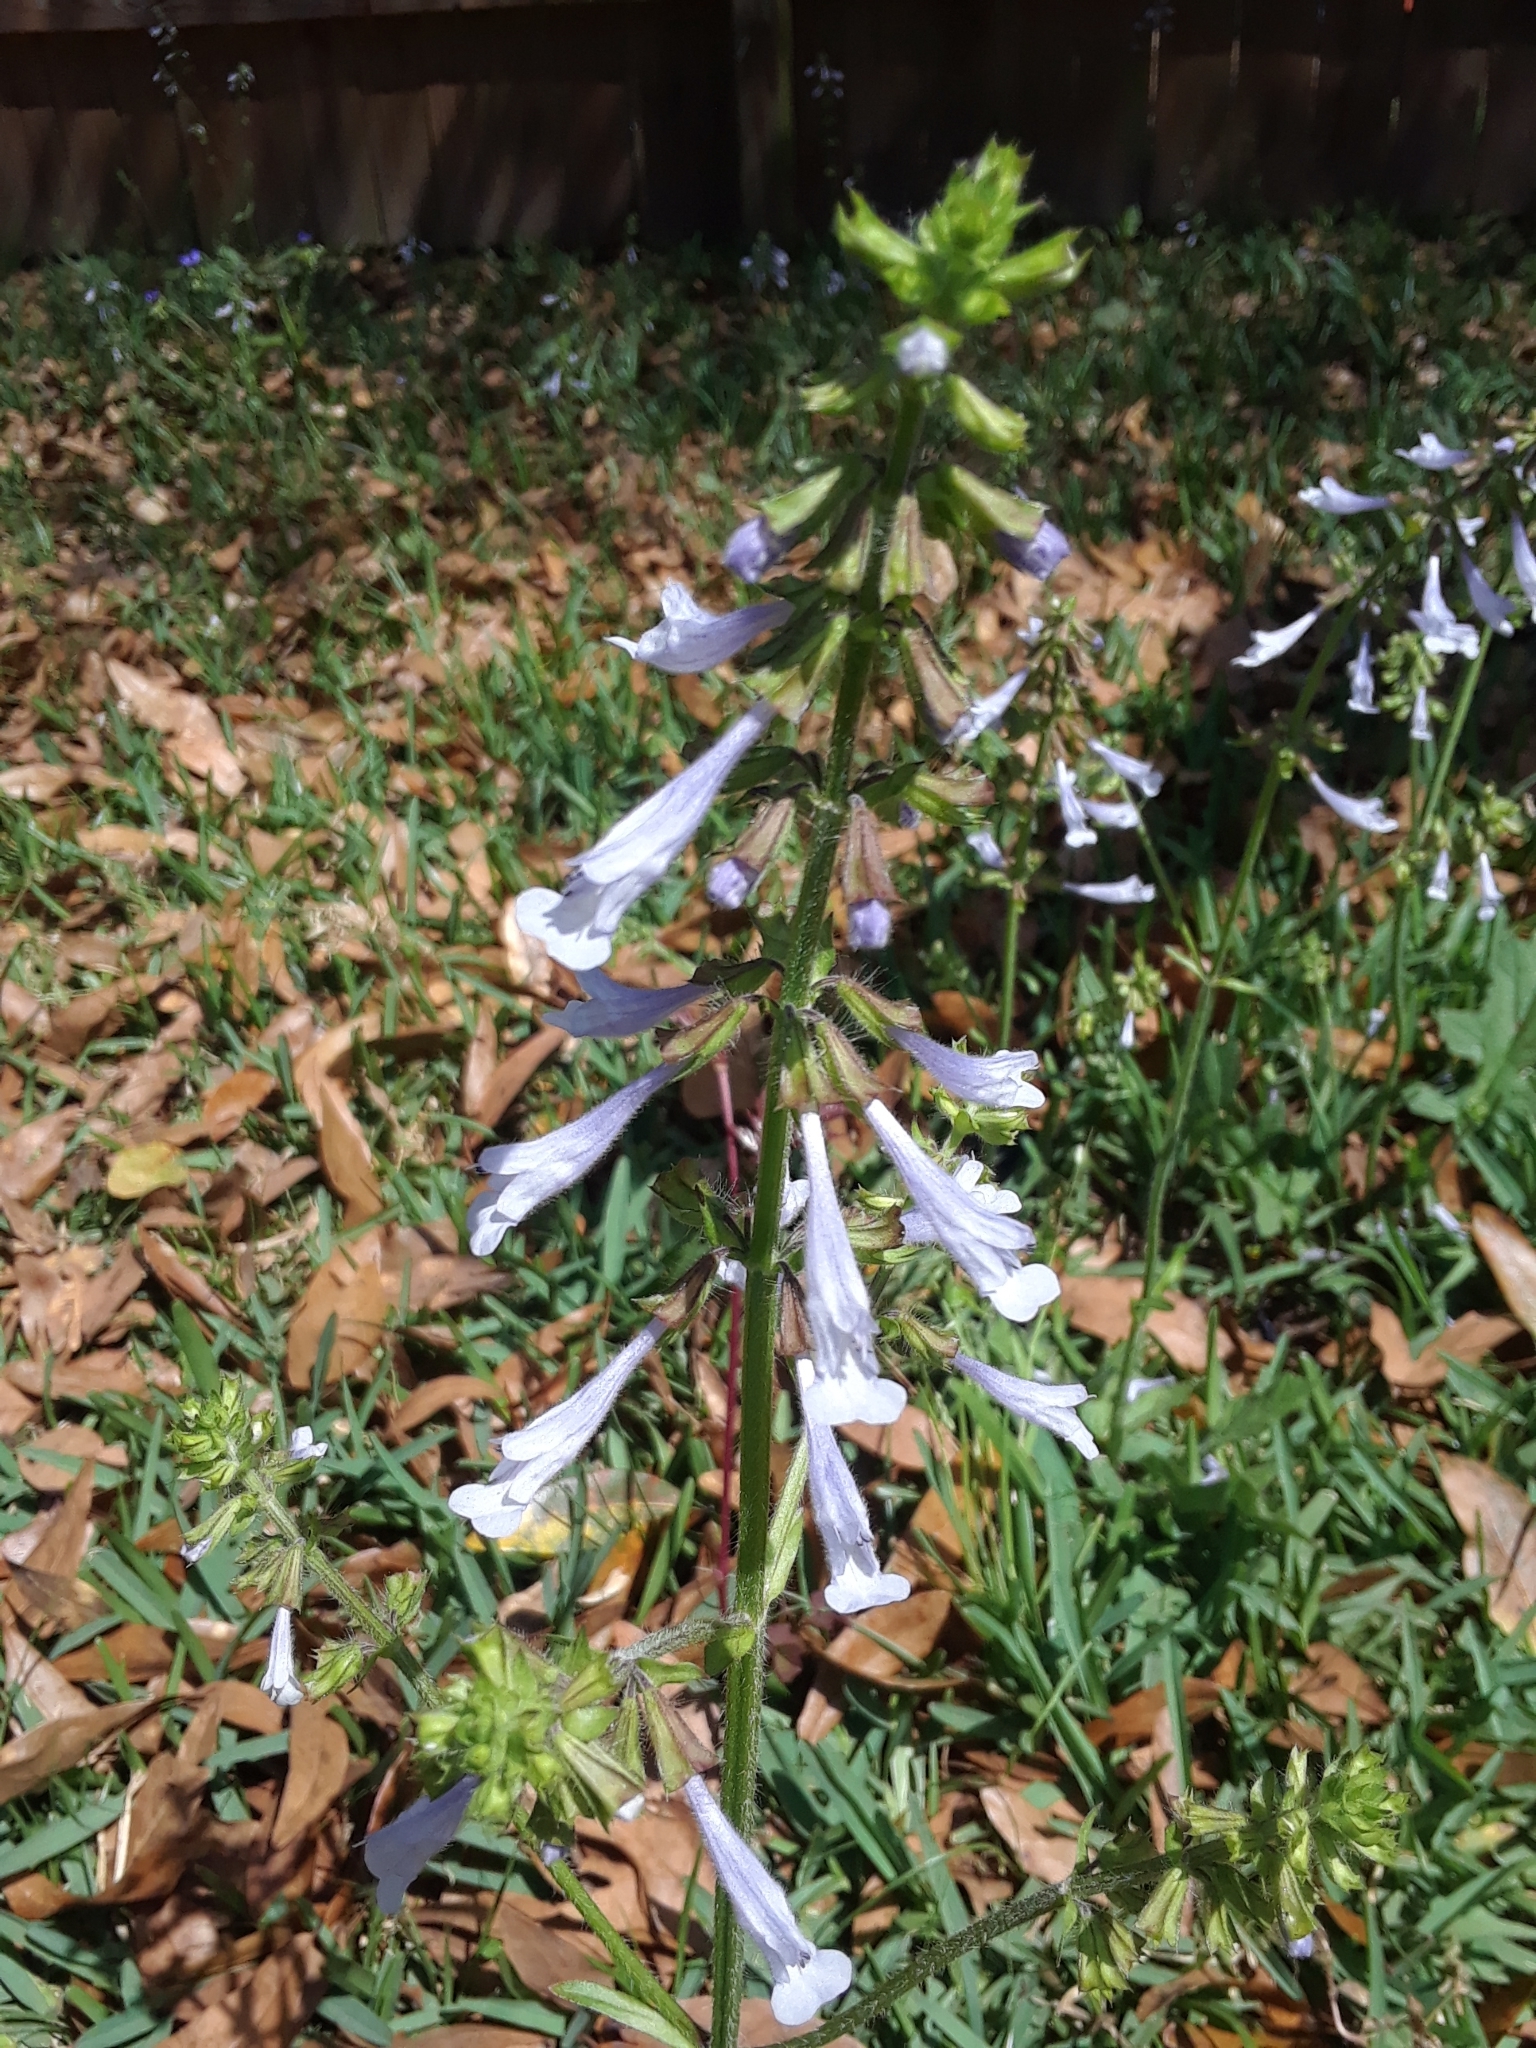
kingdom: Plantae
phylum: Tracheophyta
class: Magnoliopsida
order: Lamiales
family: Lamiaceae
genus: Salvia
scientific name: Salvia lyrata
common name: Cancerweed
